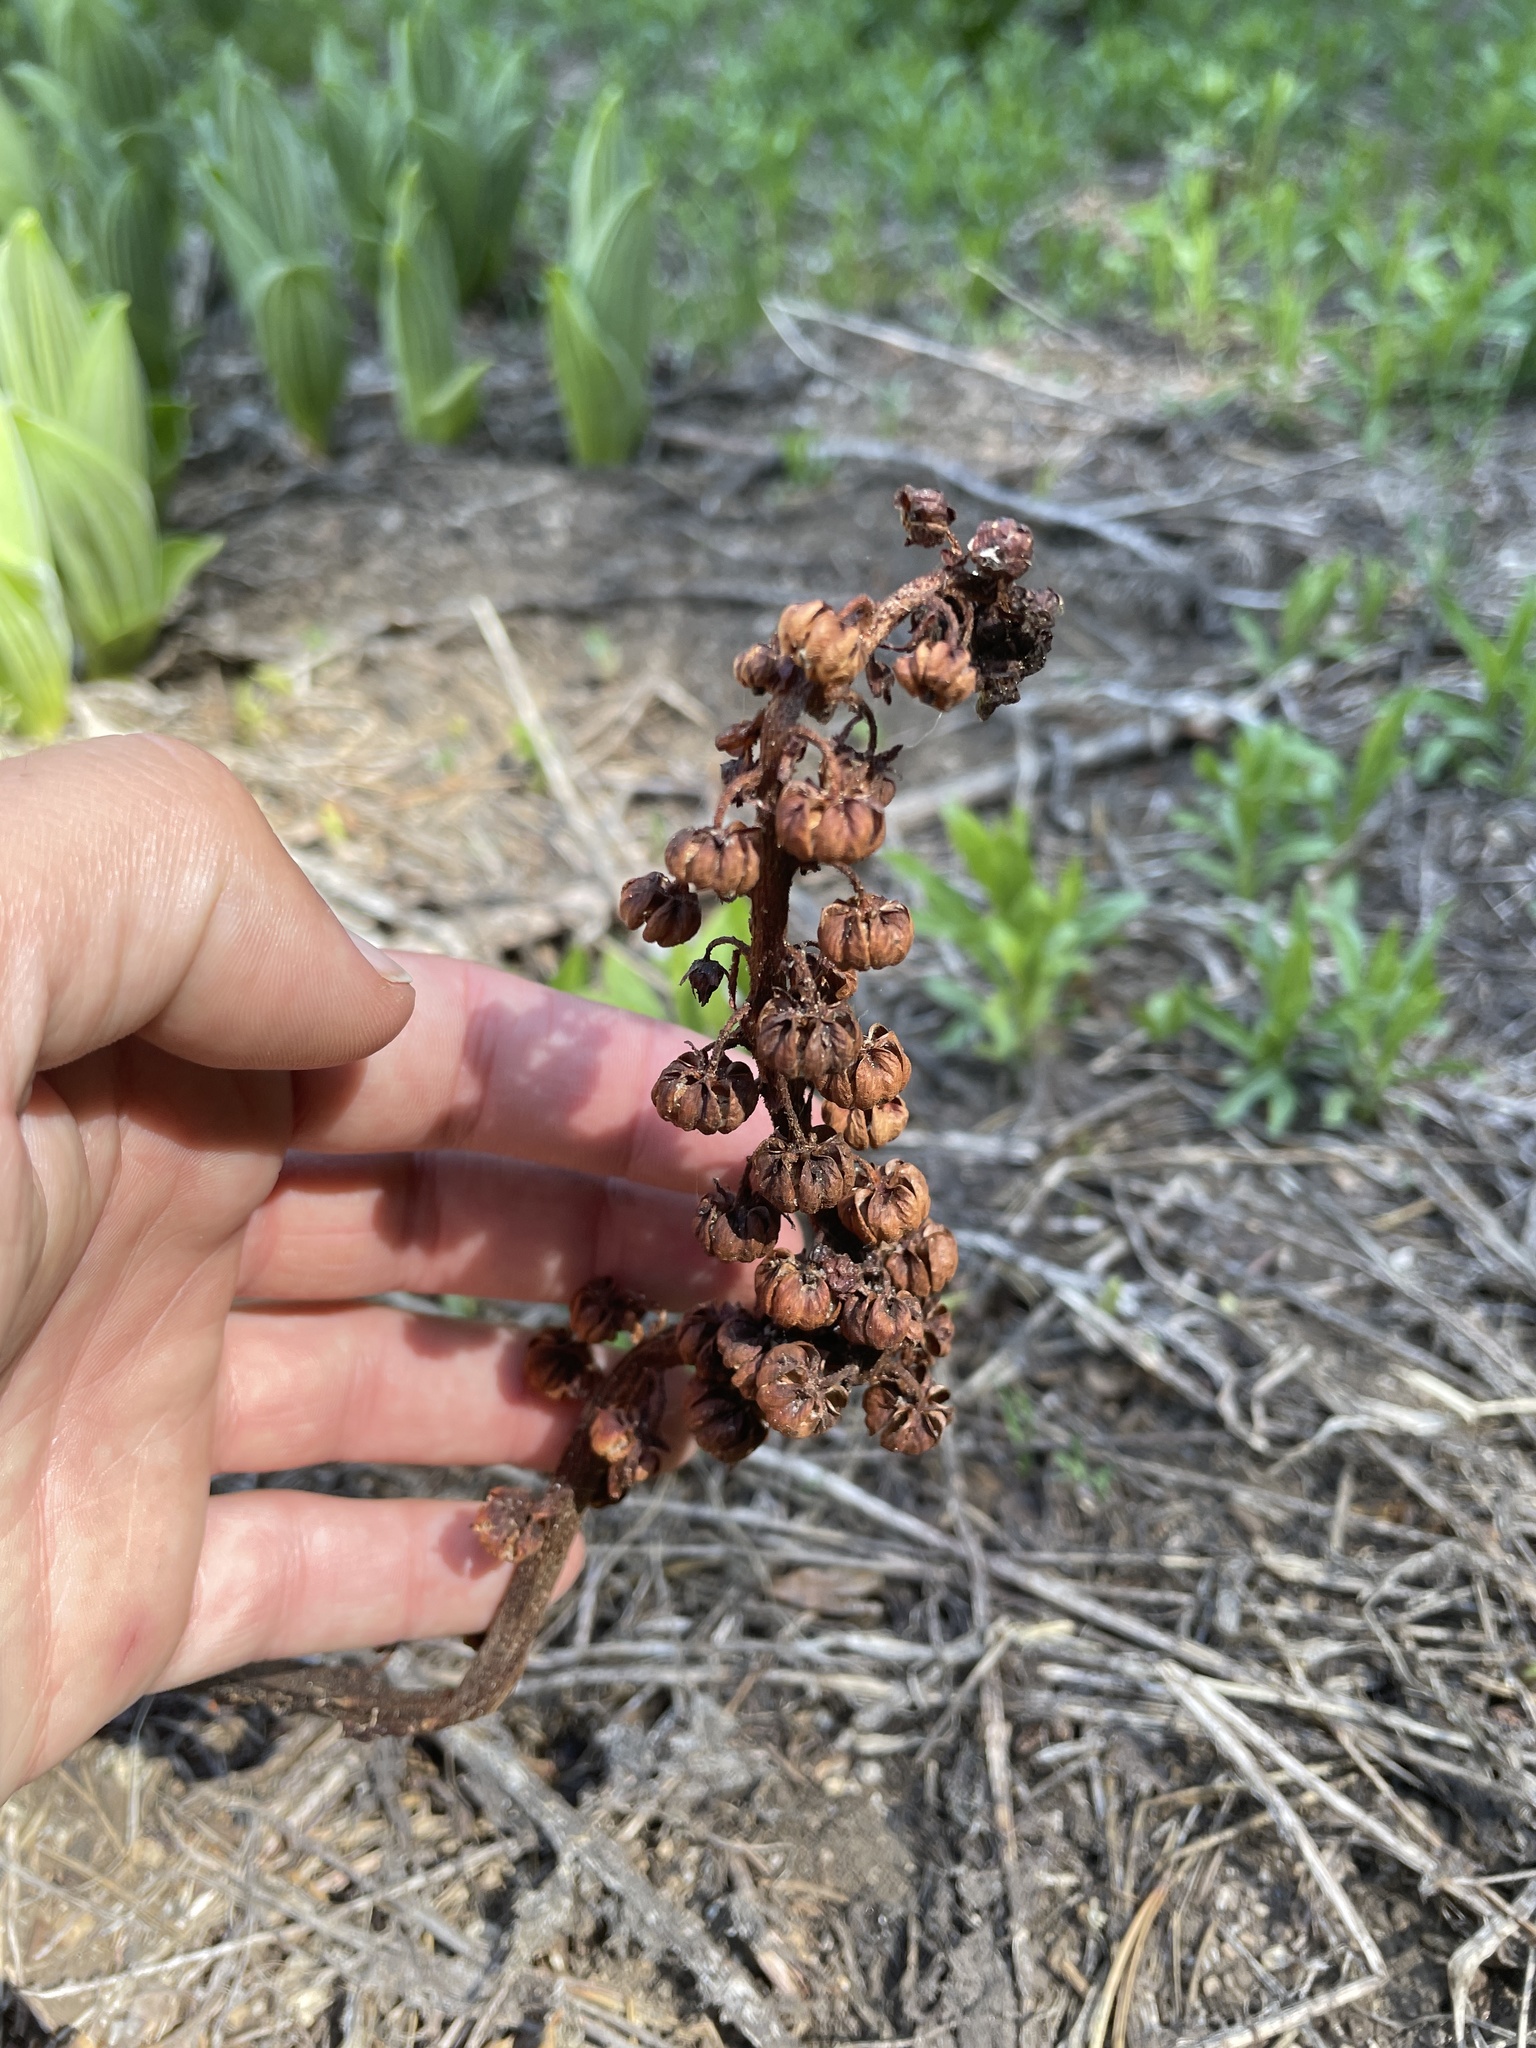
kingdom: Plantae
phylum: Tracheophyta
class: Magnoliopsida
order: Ericales
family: Ericaceae
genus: Pterospora
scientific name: Pterospora andromedea
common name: Giant bird's-nest
